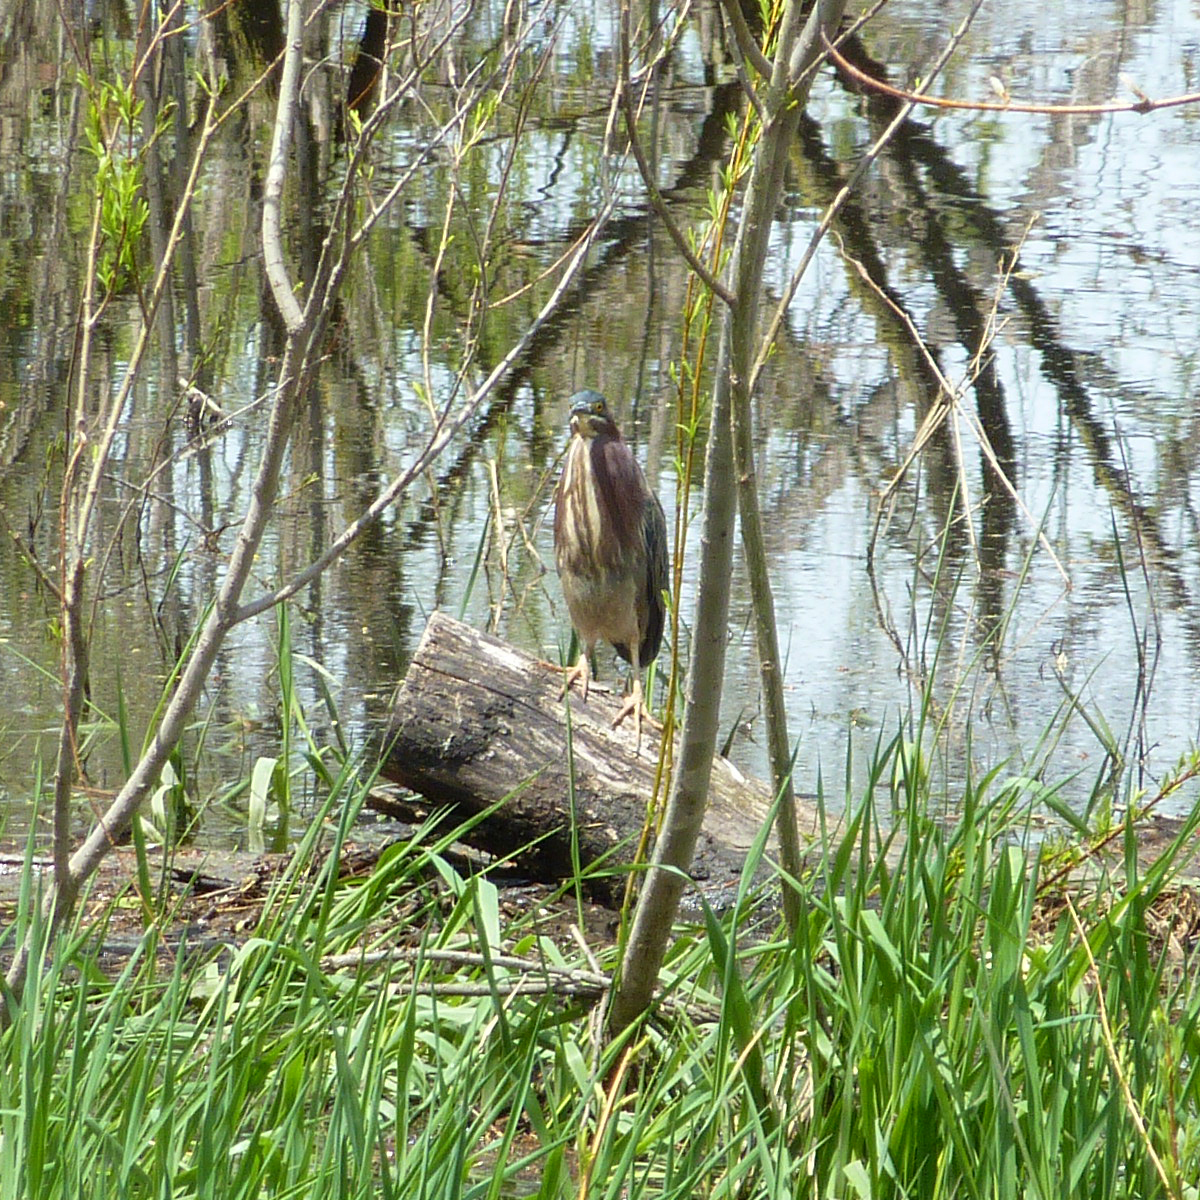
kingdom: Animalia
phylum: Chordata
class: Aves
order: Pelecaniformes
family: Ardeidae
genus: Butorides
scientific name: Butorides virescens
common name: Green heron
